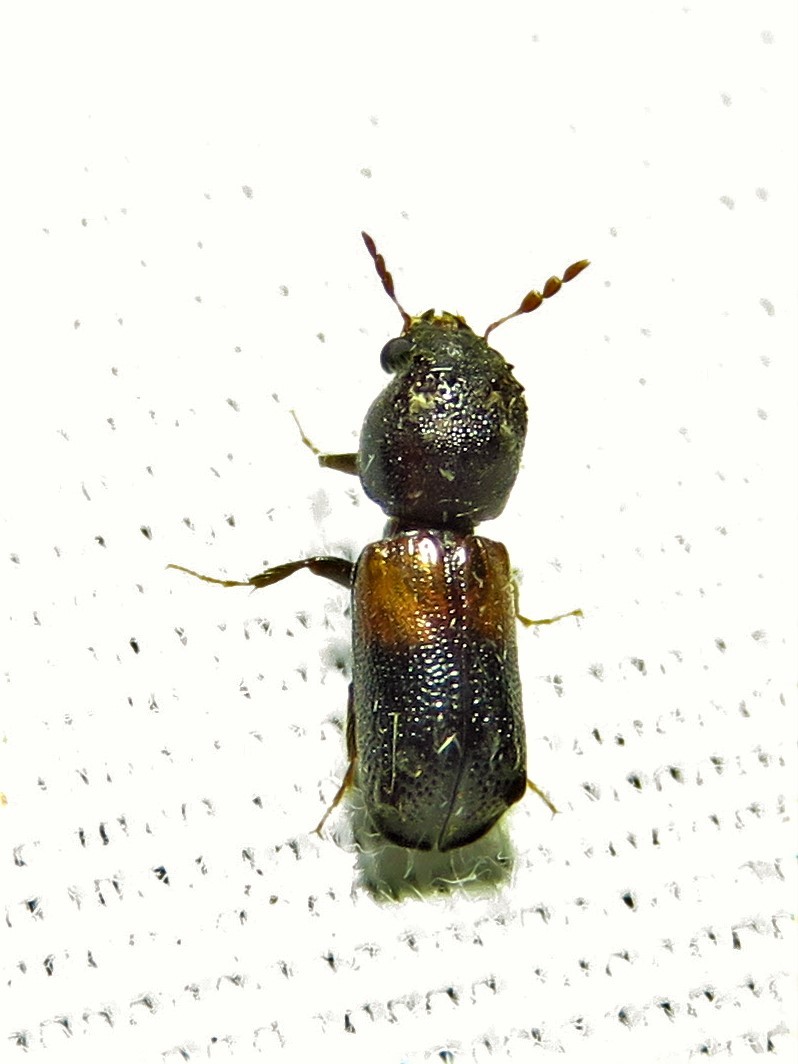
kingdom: Animalia
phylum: Arthropoda
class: Insecta
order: Coleoptera
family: Bostrichidae
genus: Xylobiops
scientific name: Xylobiops basilaris
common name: Red-shouldered bostrichid
